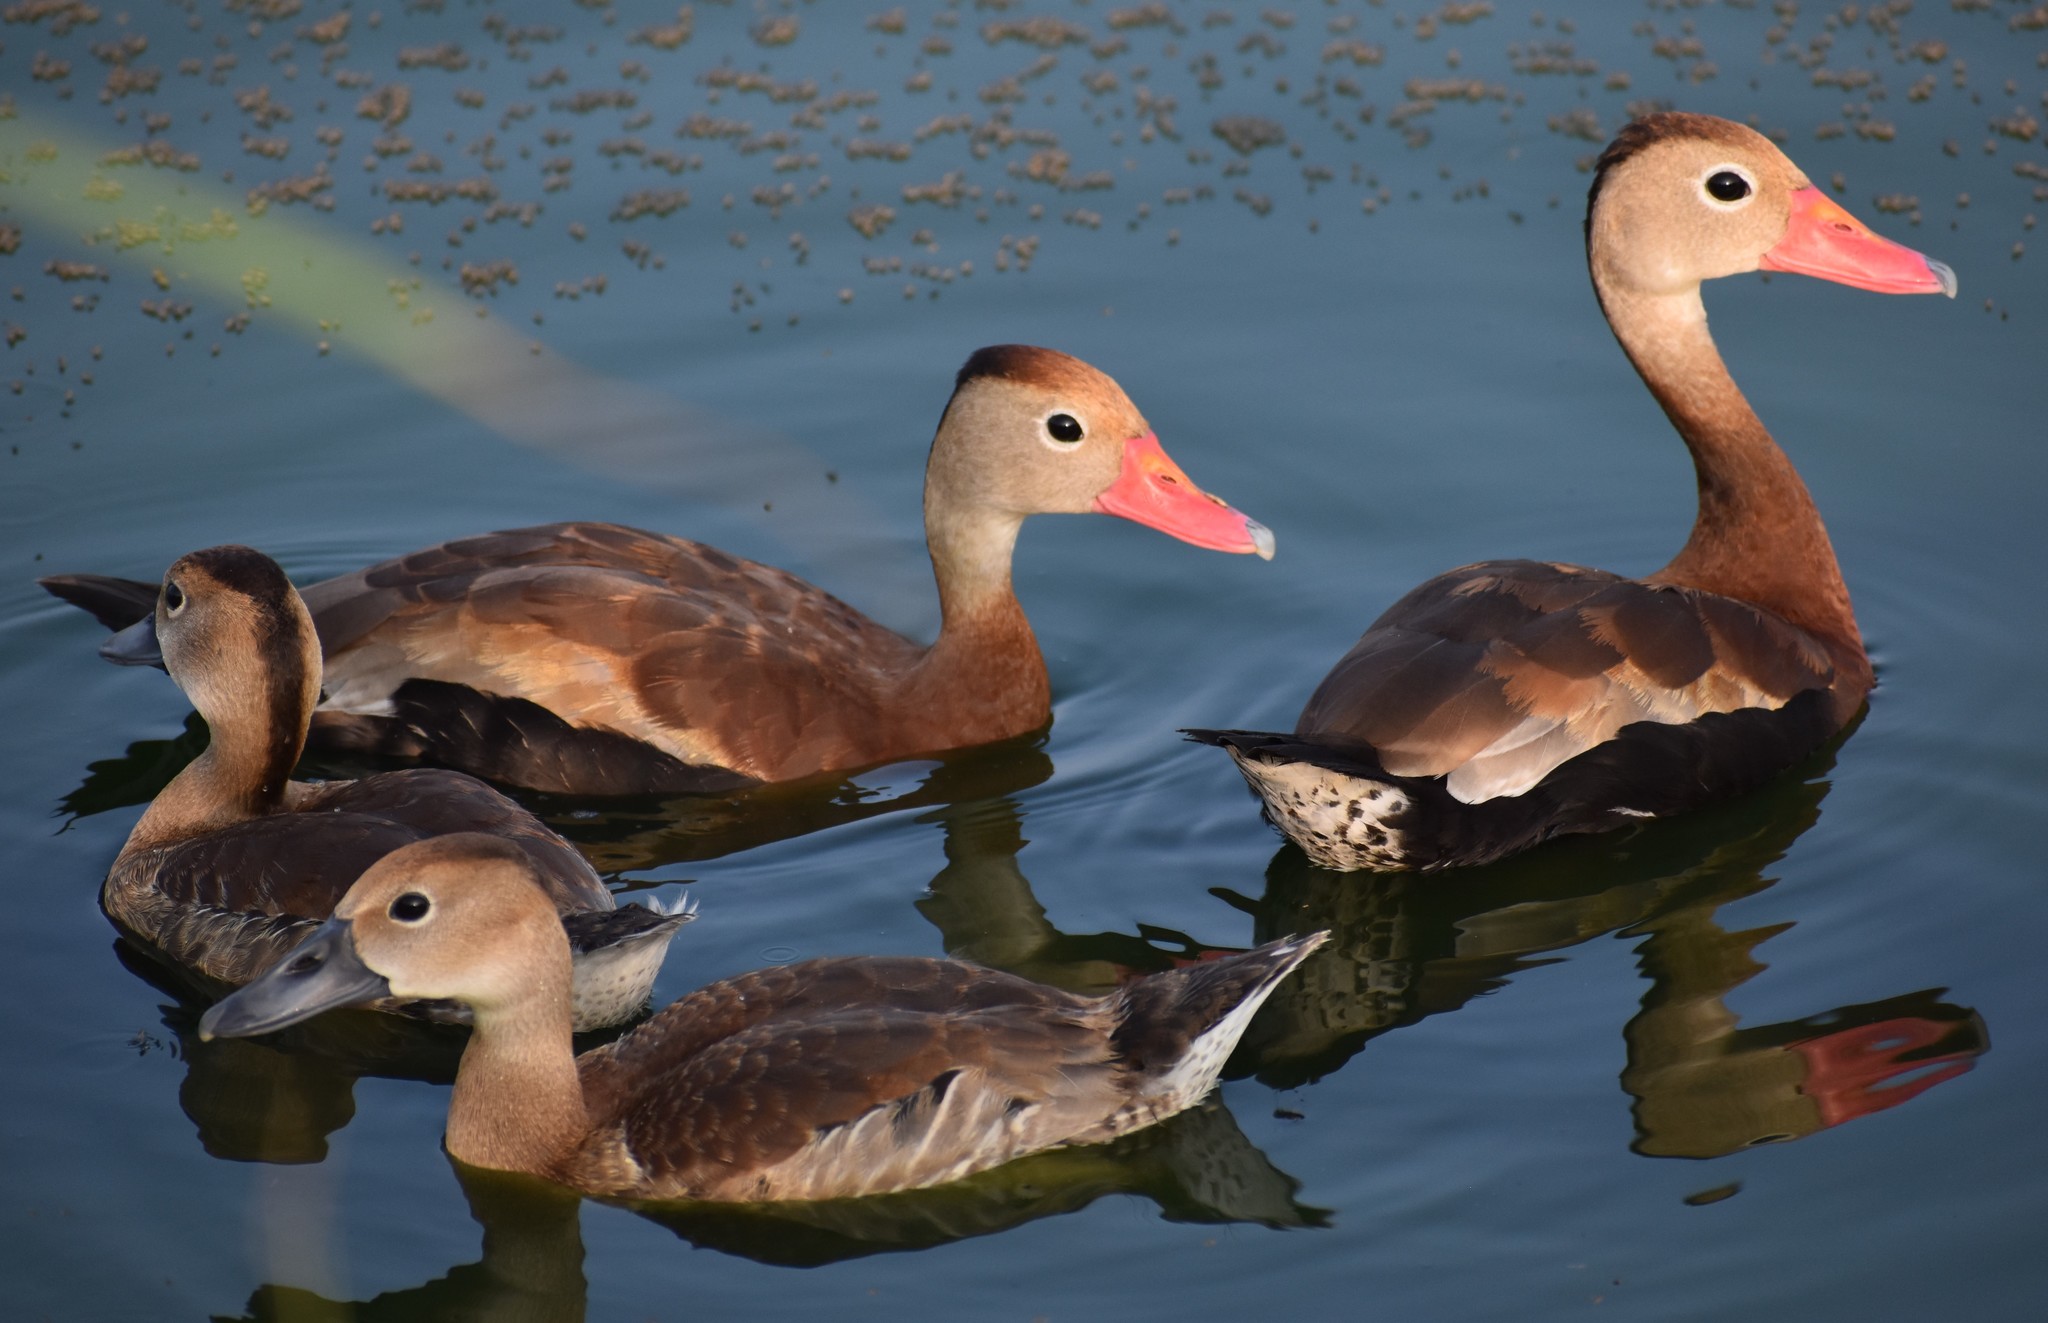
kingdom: Animalia
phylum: Chordata
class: Aves
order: Anseriformes
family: Anatidae
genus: Dendrocygna
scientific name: Dendrocygna autumnalis
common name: Black-bellied whistling duck
